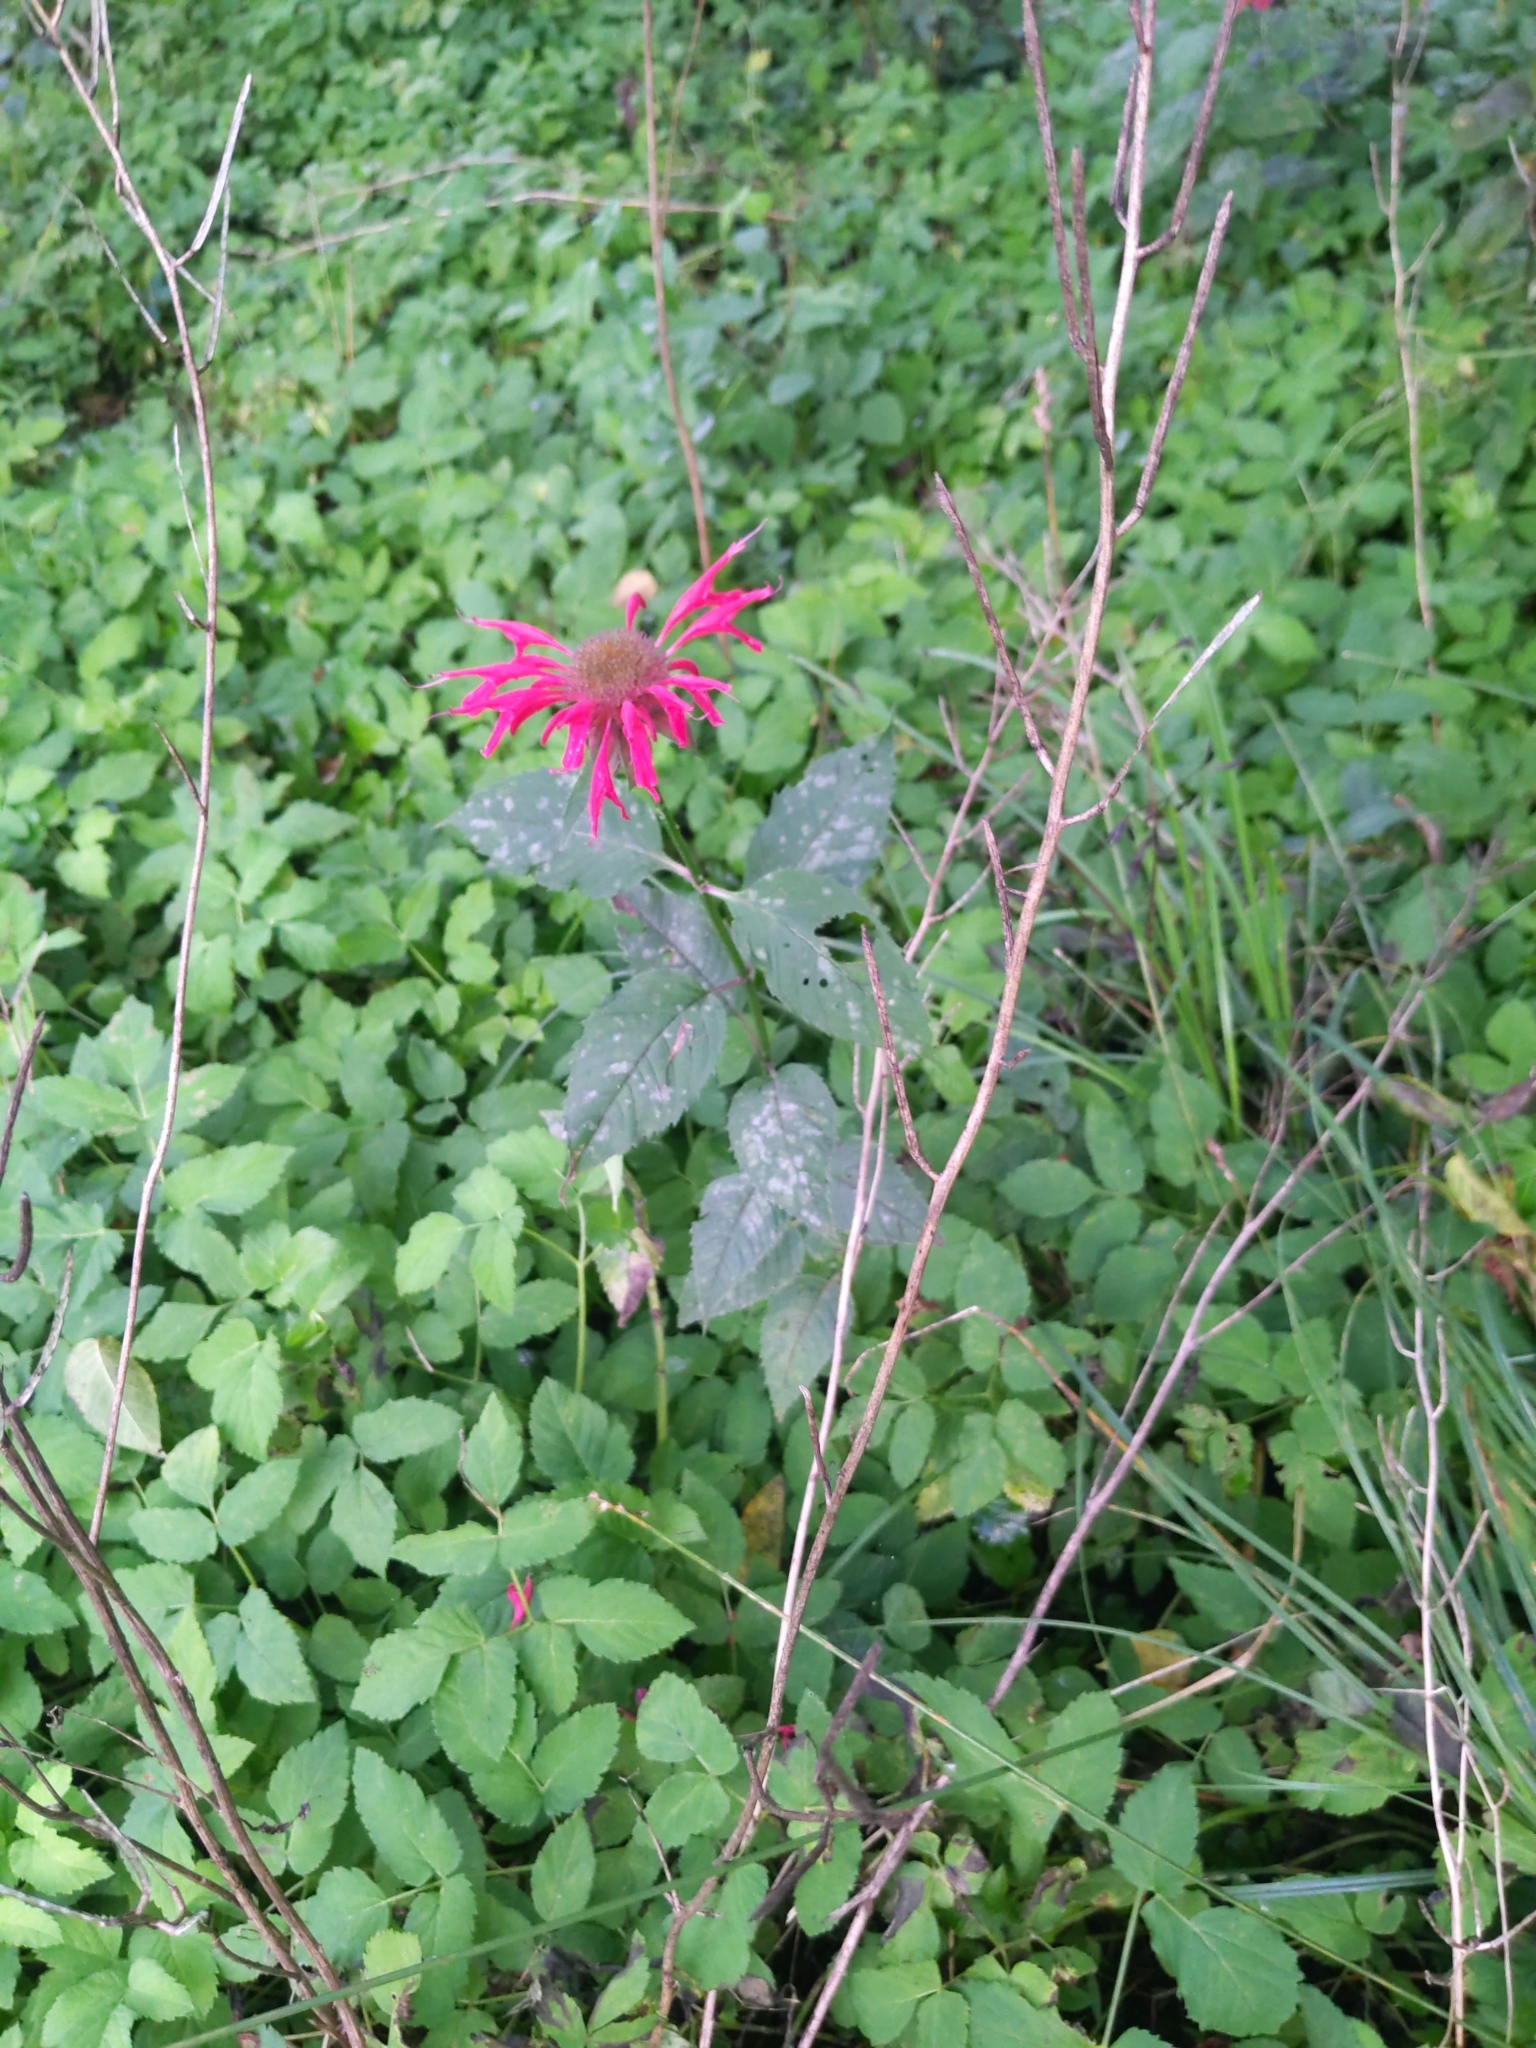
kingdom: Plantae
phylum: Tracheophyta
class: Magnoliopsida
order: Lamiales
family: Lamiaceae
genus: Monarda
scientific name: Monarda didyma
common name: Beebalm
